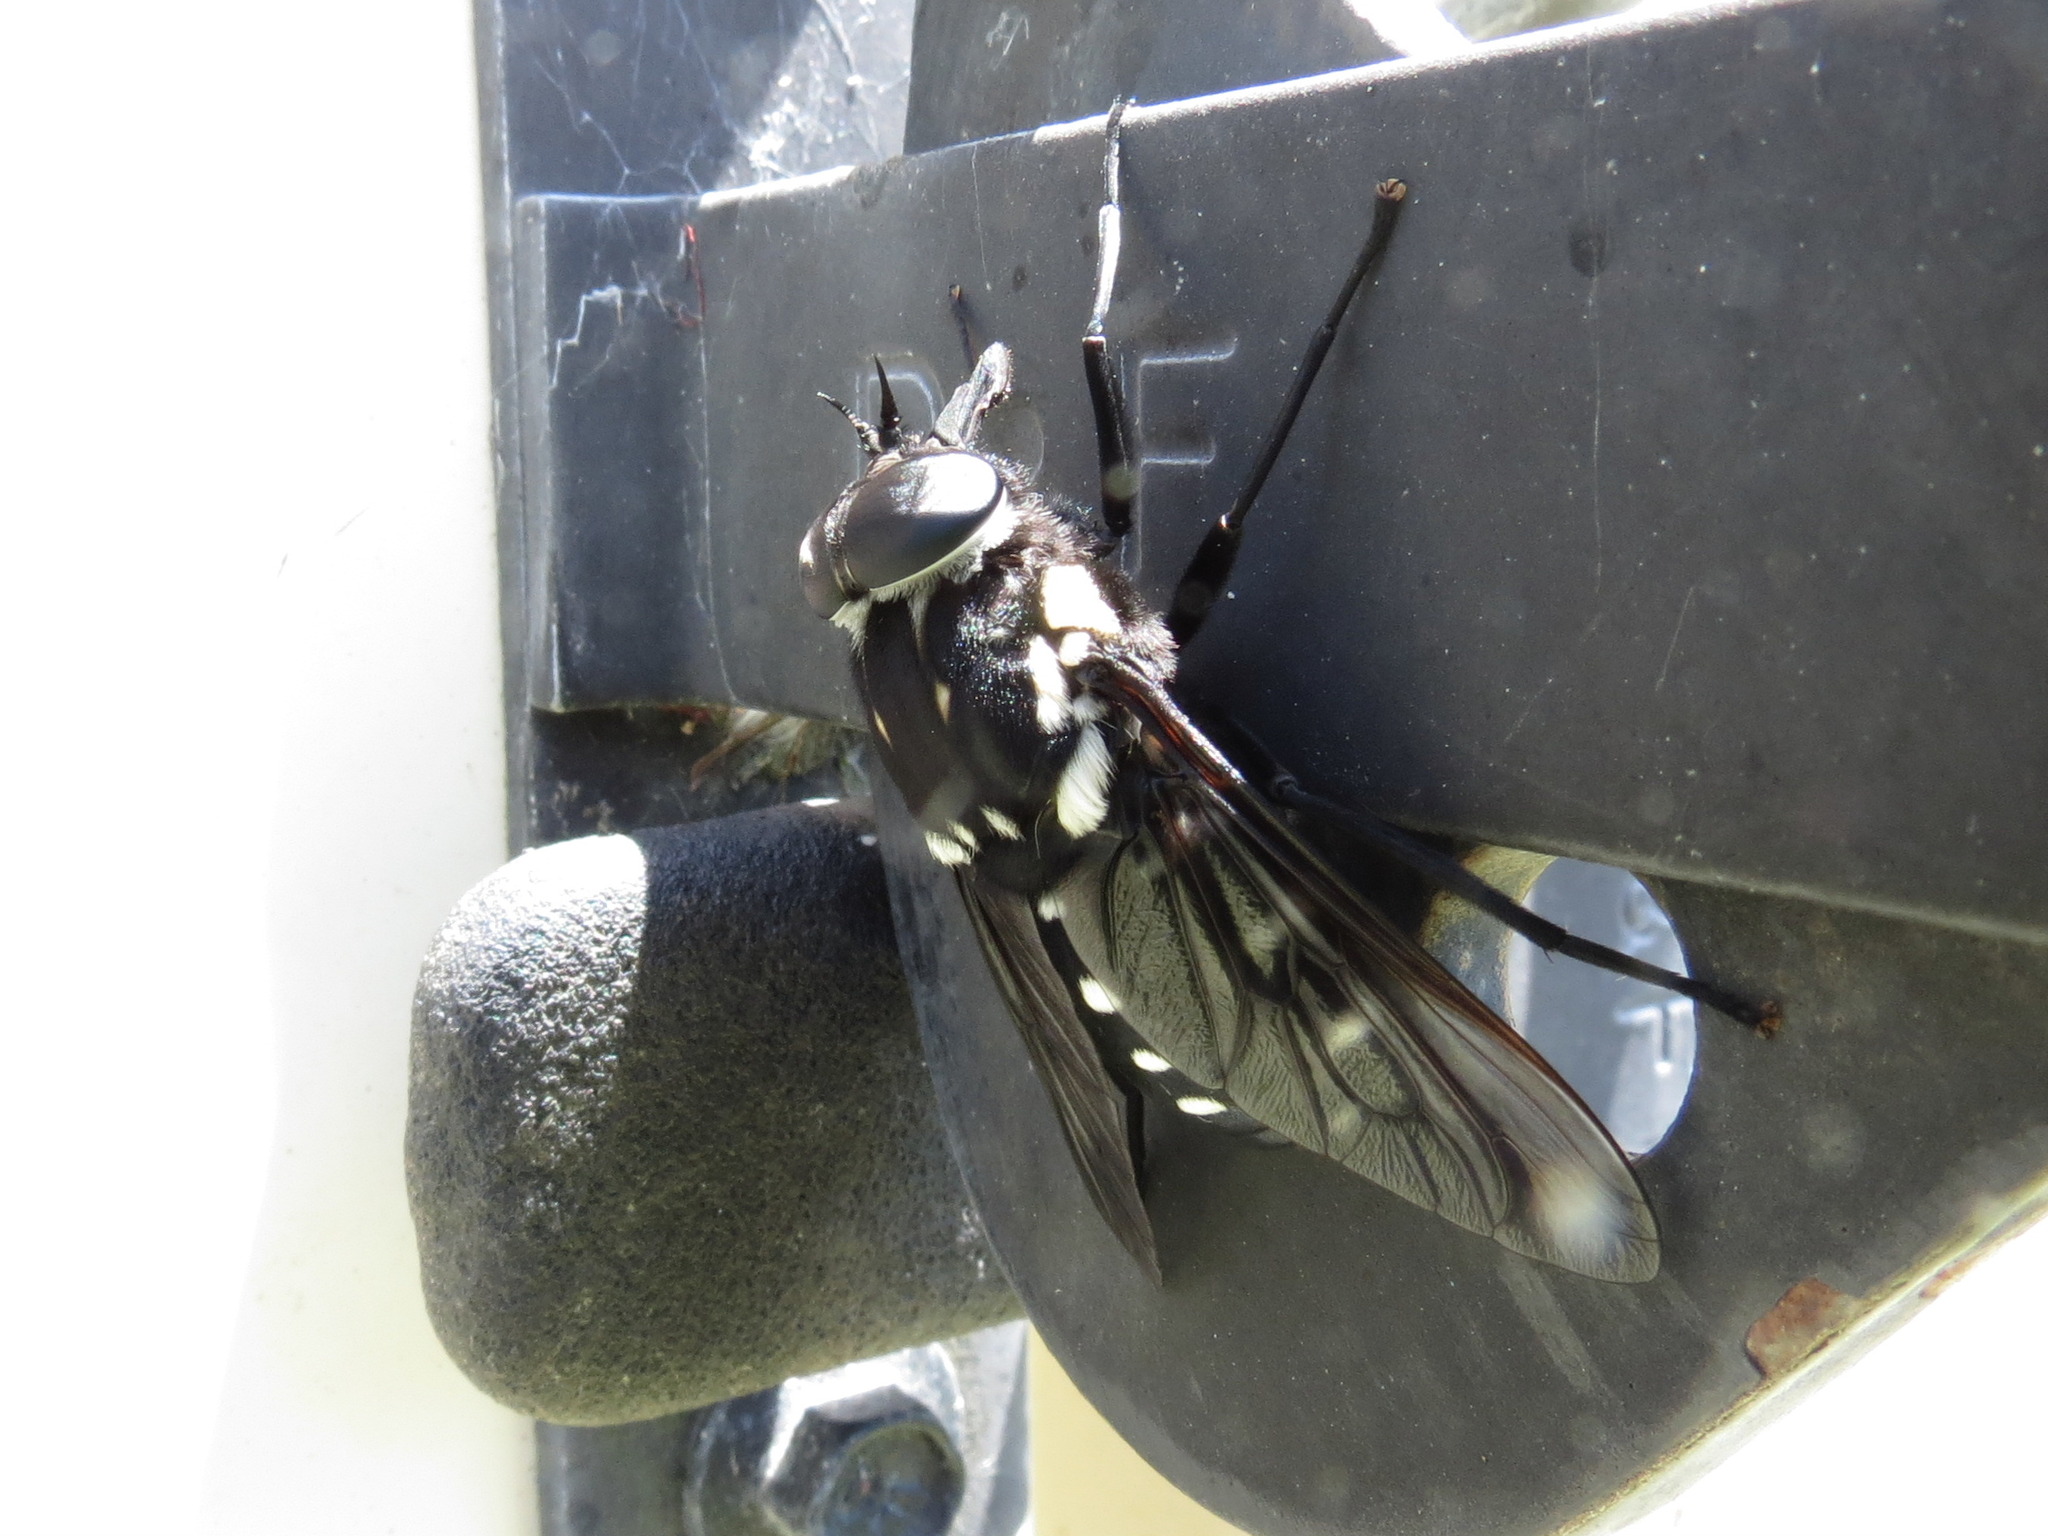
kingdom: Animalia
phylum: Arthropoda
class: Insecta
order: Diptera
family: Tabanidae
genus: Triclista
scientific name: Triclista guttata
